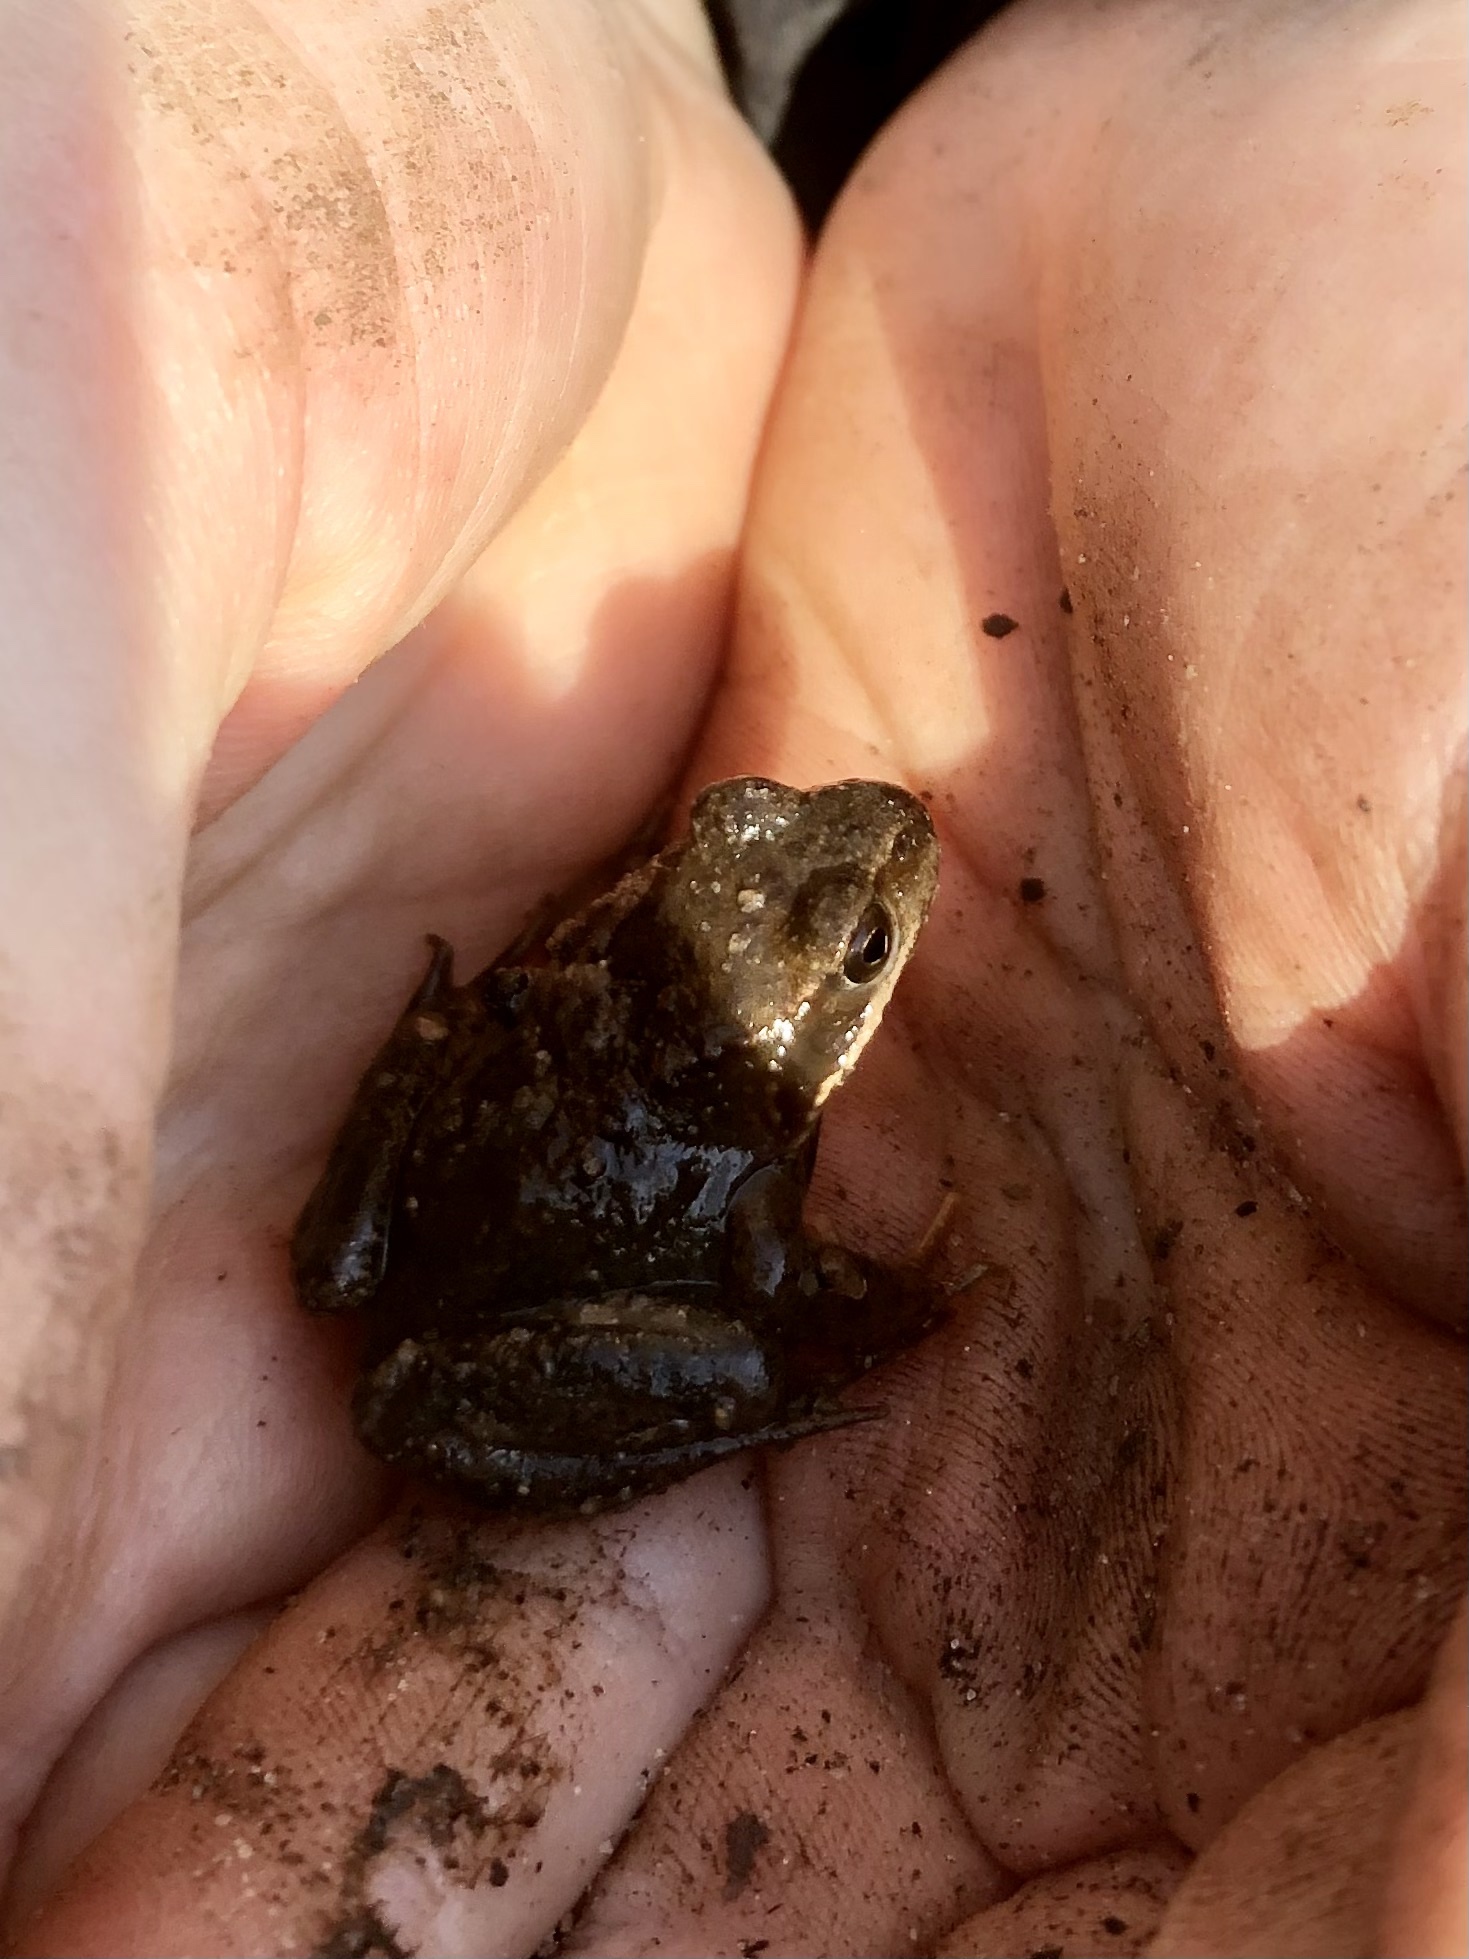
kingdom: Animalia
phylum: Chordata
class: Amphibia
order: Anura
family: Ranidae
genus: Rana
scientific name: Rana temporaria
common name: Common frog
